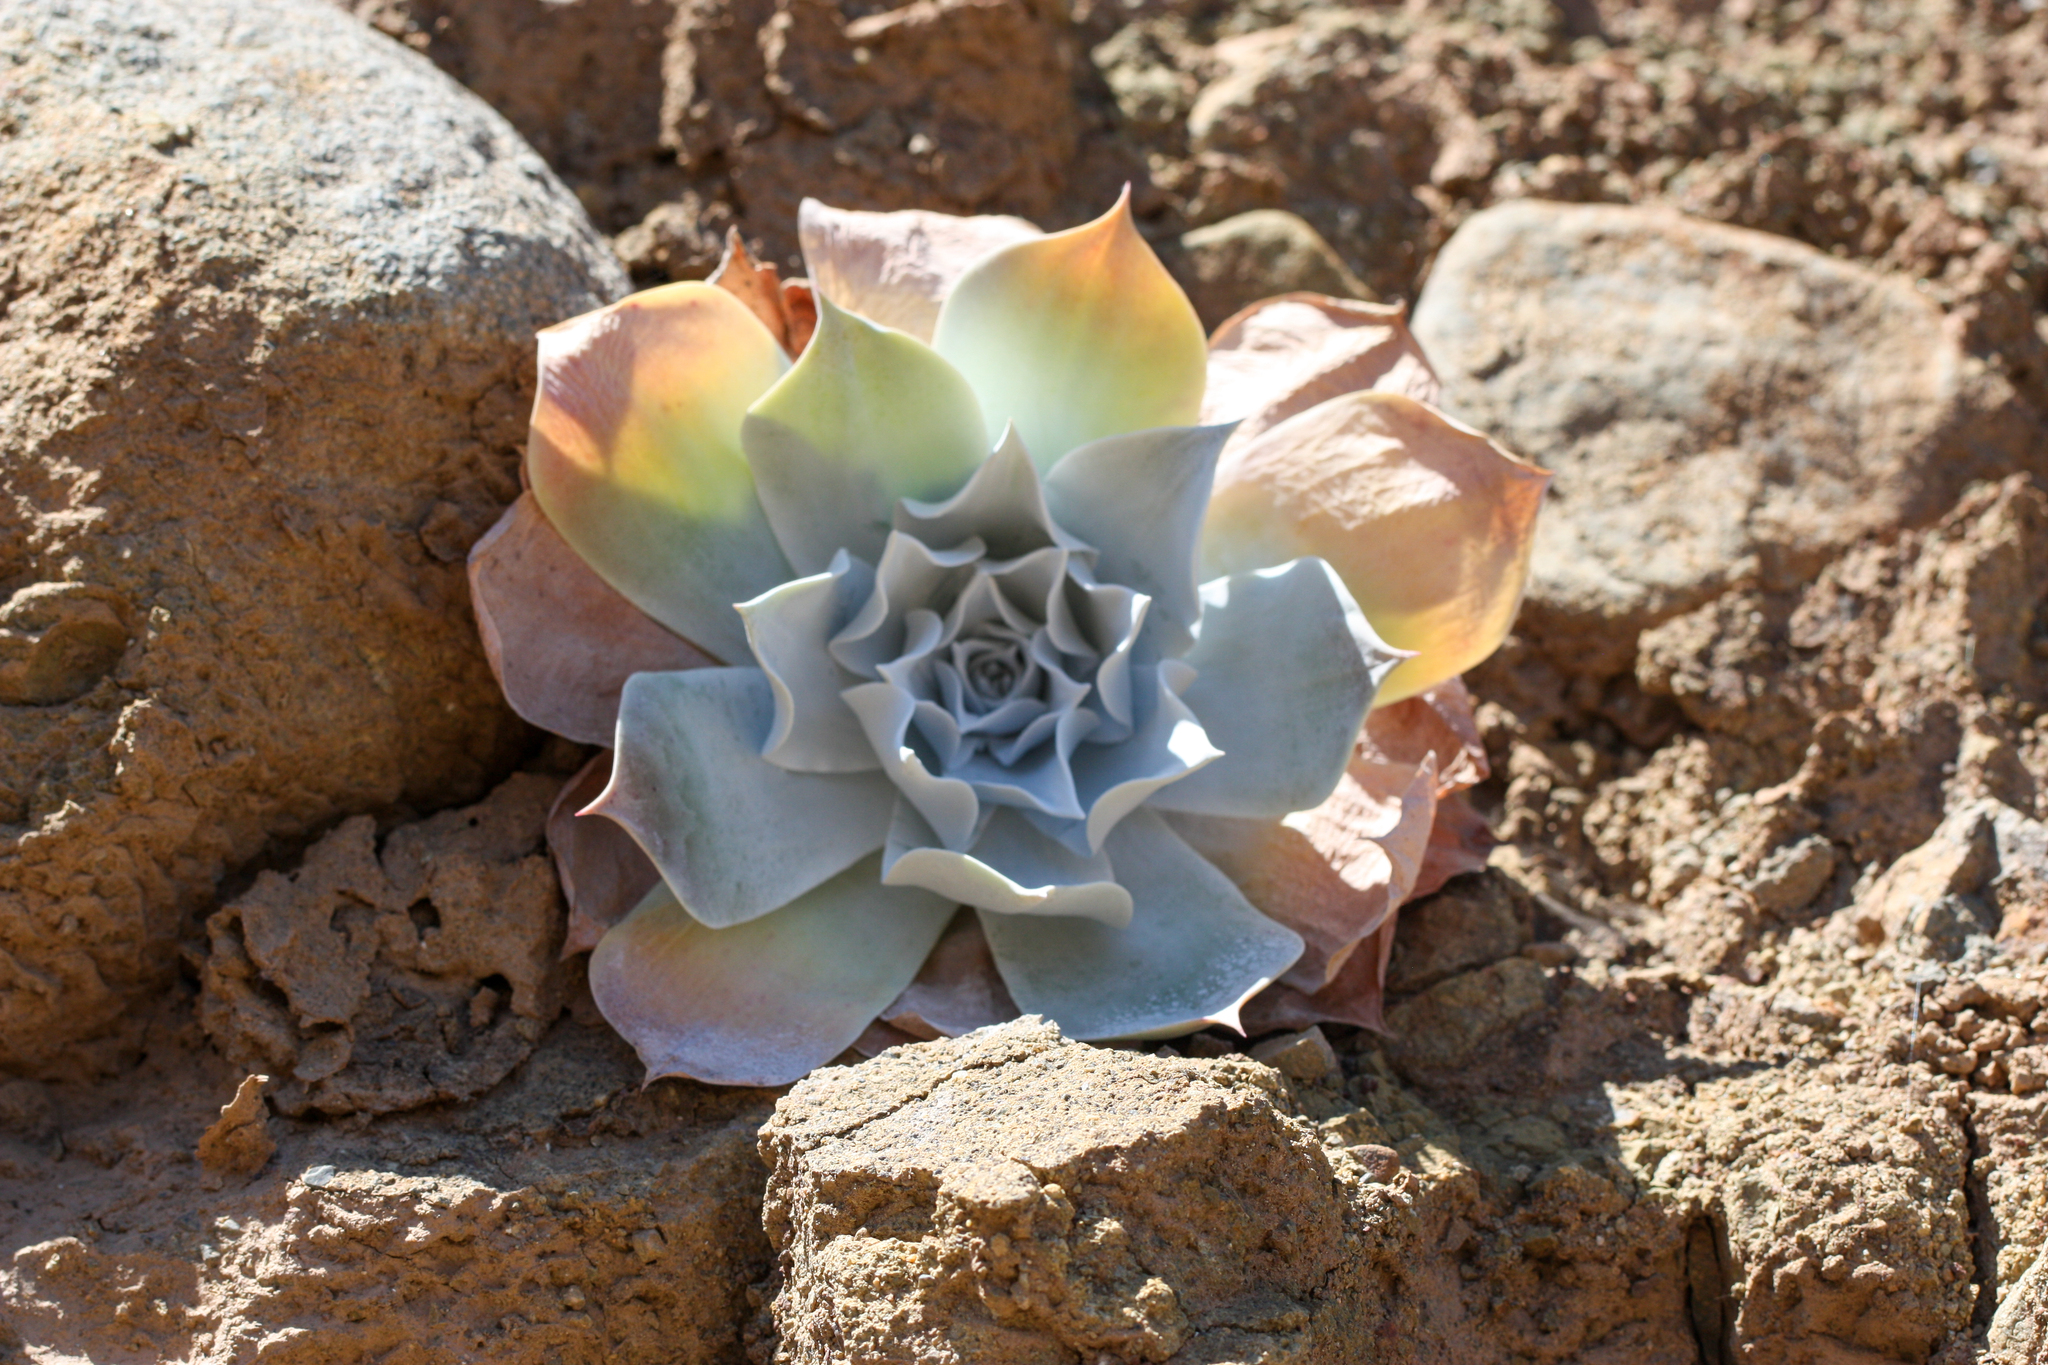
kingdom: Plantae
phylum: Tracheophyta
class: Magnoliopsida
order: Saxifragales
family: Crassulaceae
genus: Dudleya
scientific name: Dudleya pulverulenta
